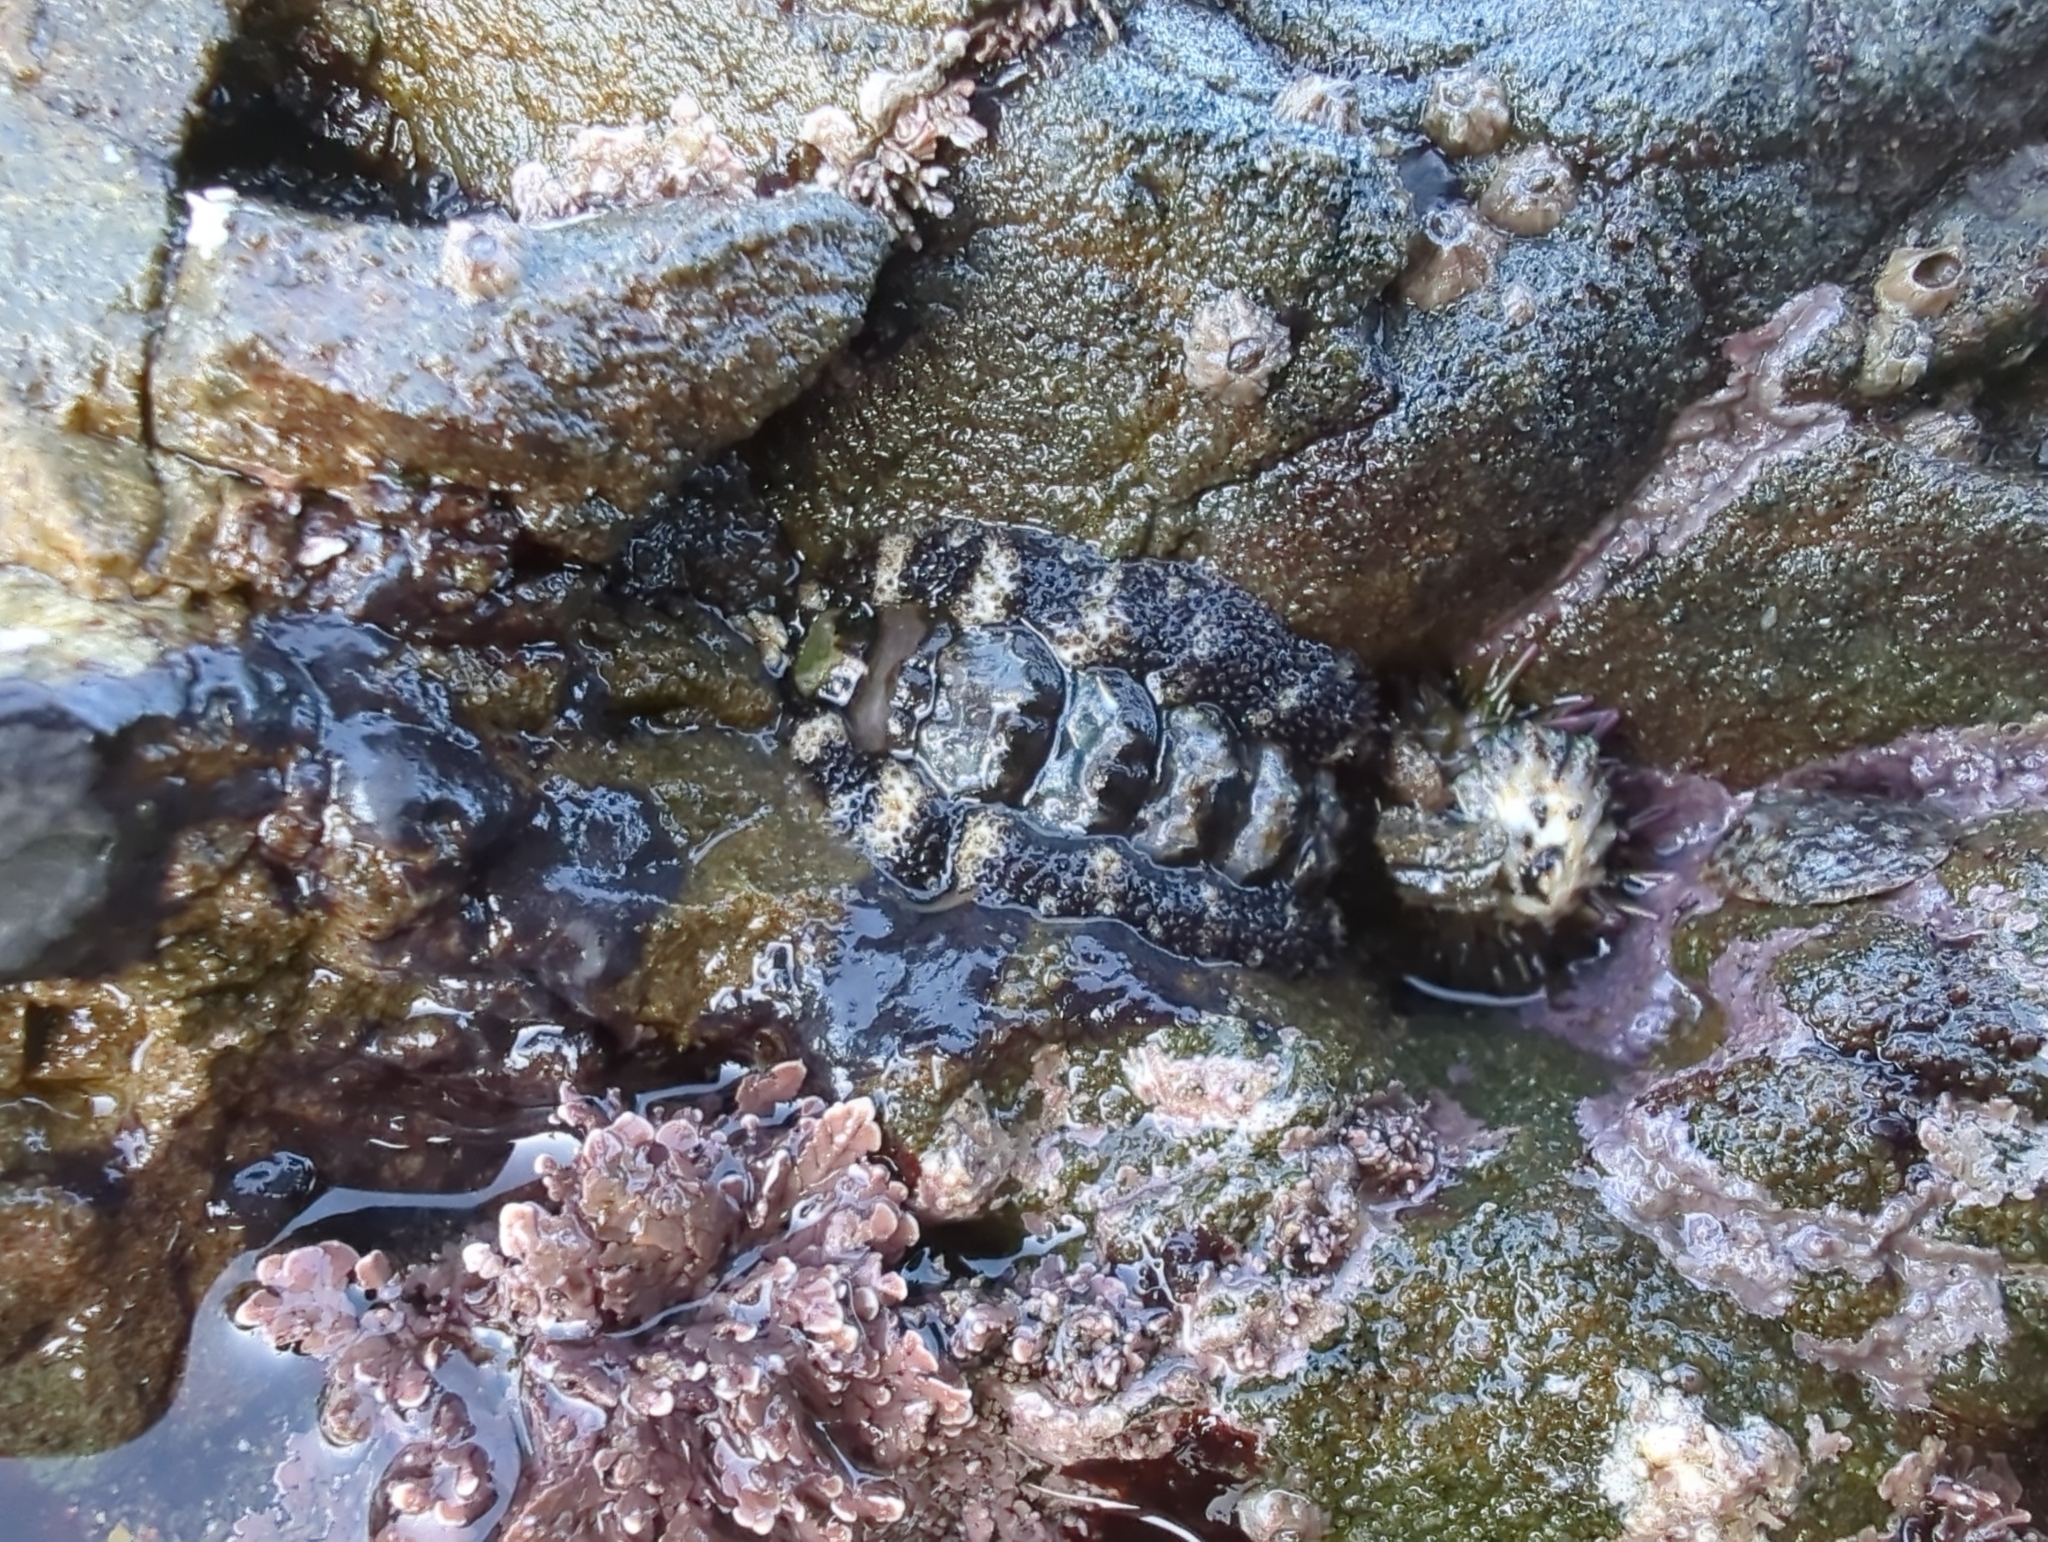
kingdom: Animalia
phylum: Mollusca
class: Polyplacophora
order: Chitonida
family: Tonicellidae
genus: Nuttallina
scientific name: Nuttallina californica
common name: California nuttall chiton
